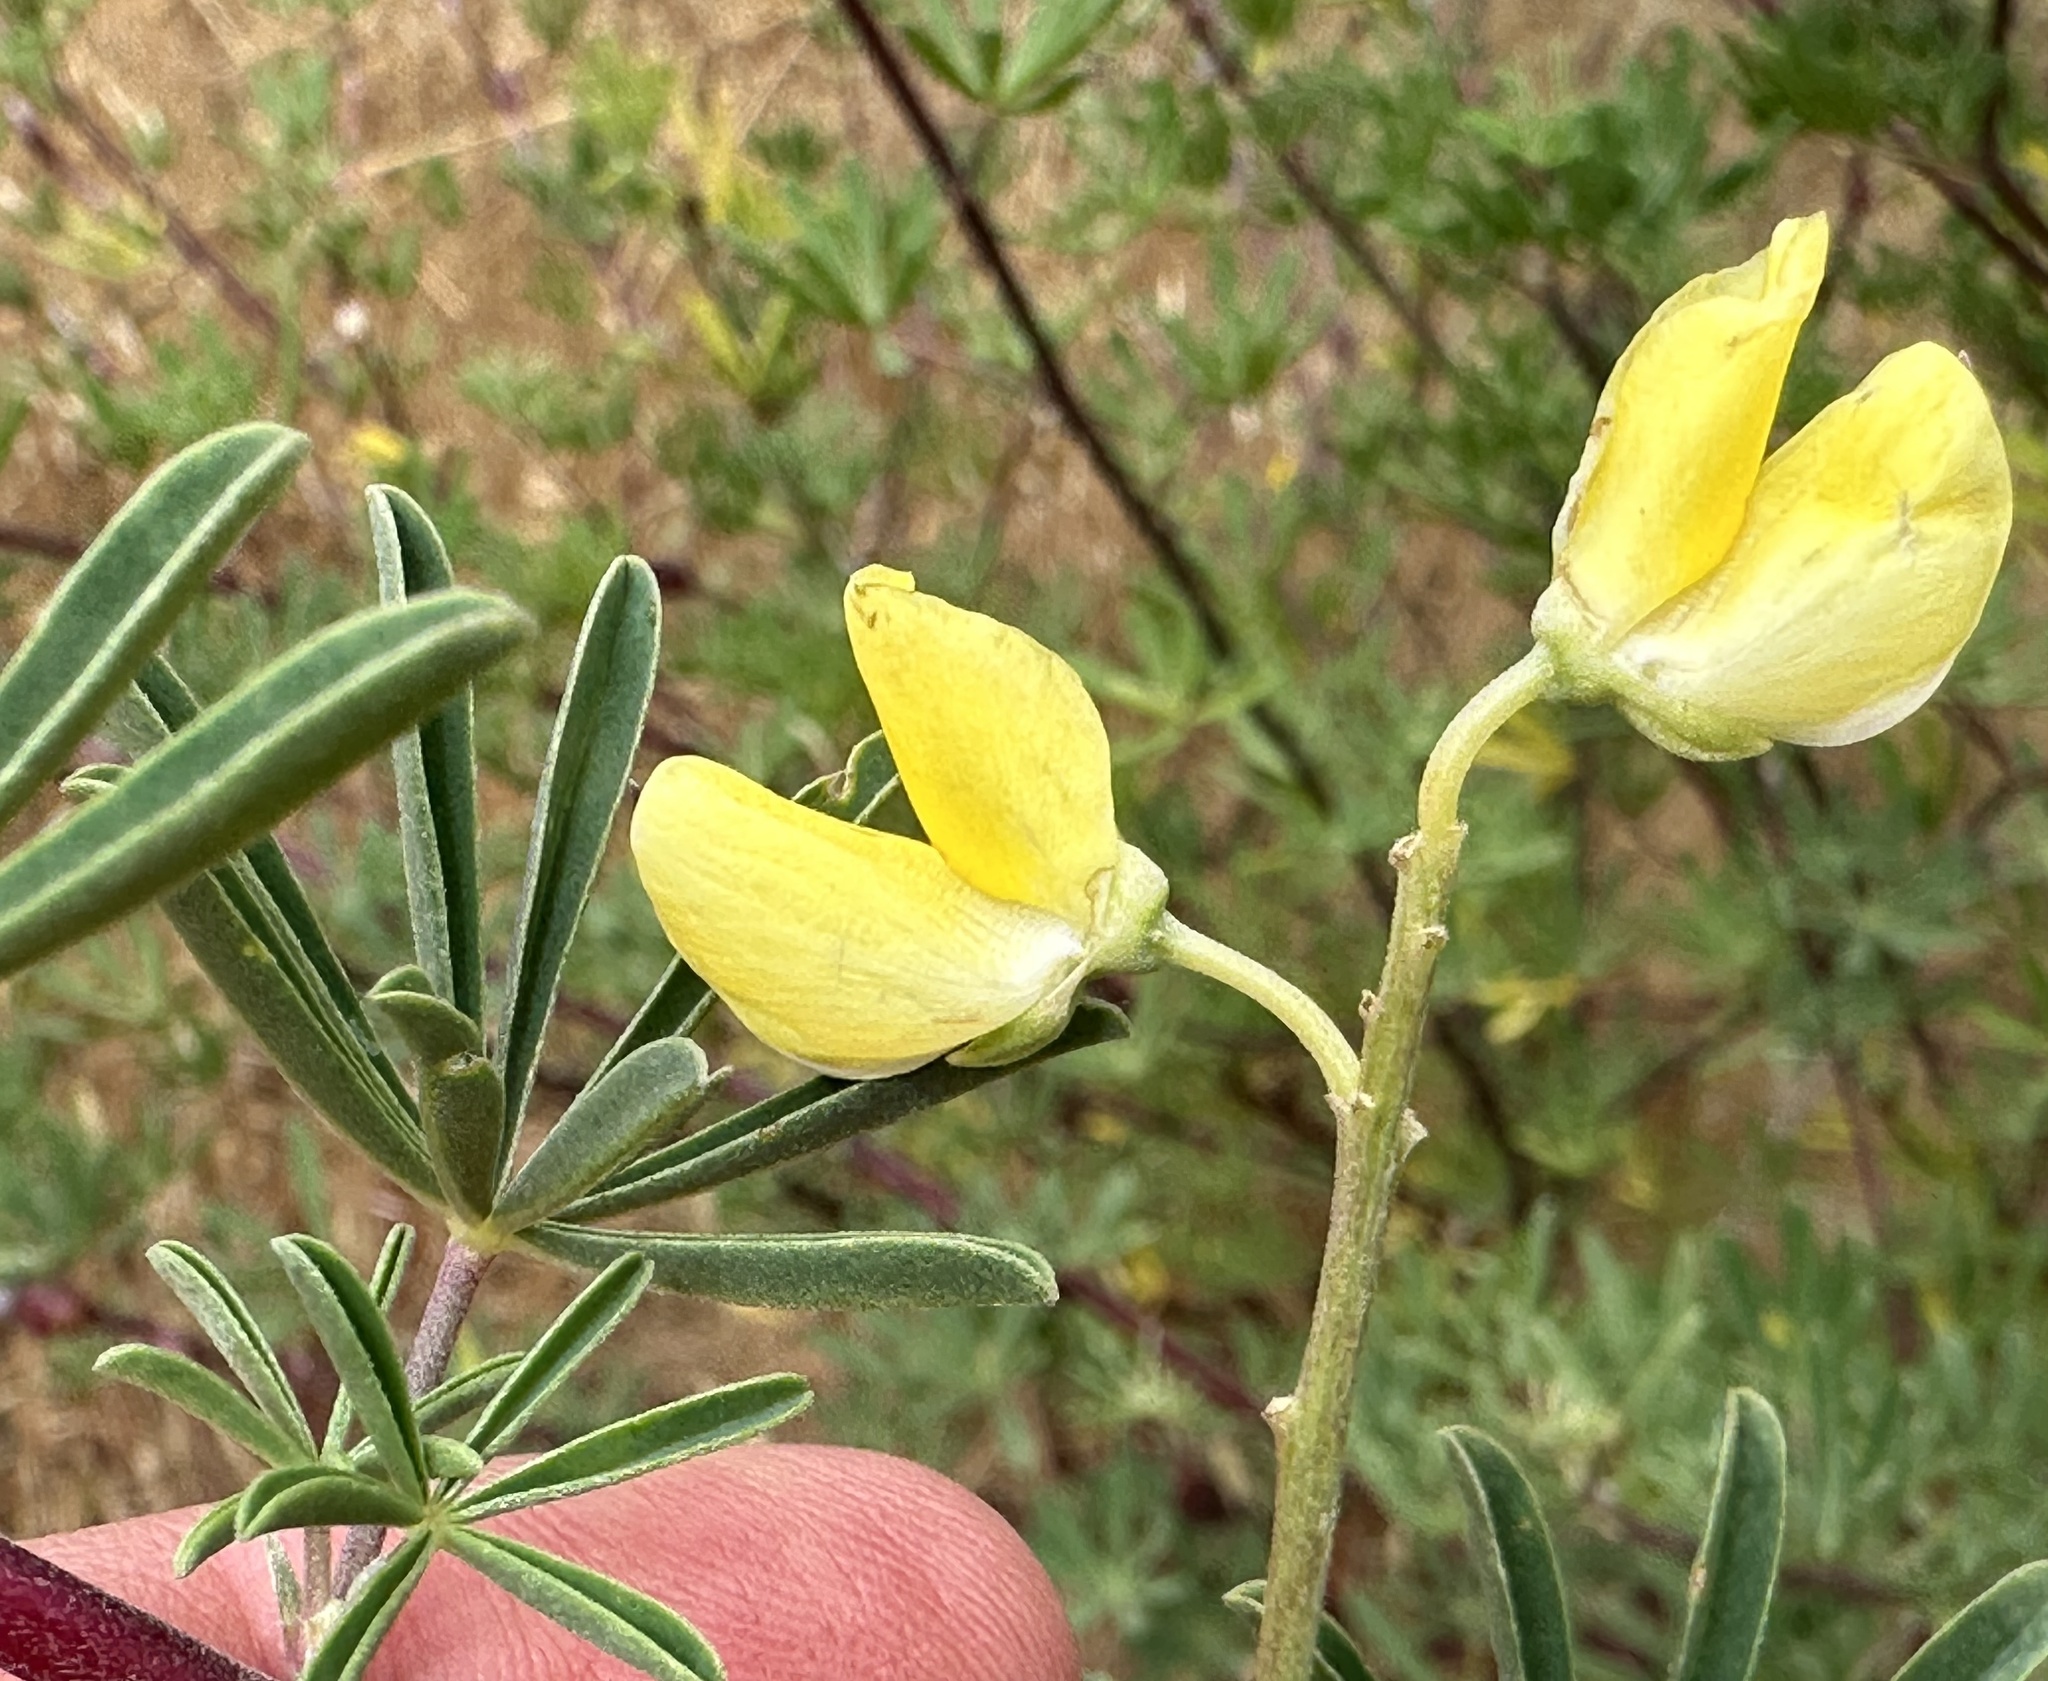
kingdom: Plantae
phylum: Tracheophyta
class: Magnoliopsida
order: Fabales
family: Fabaceae
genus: Lupinus
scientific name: Lupinus arboreus
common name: Yellow bush lupine
